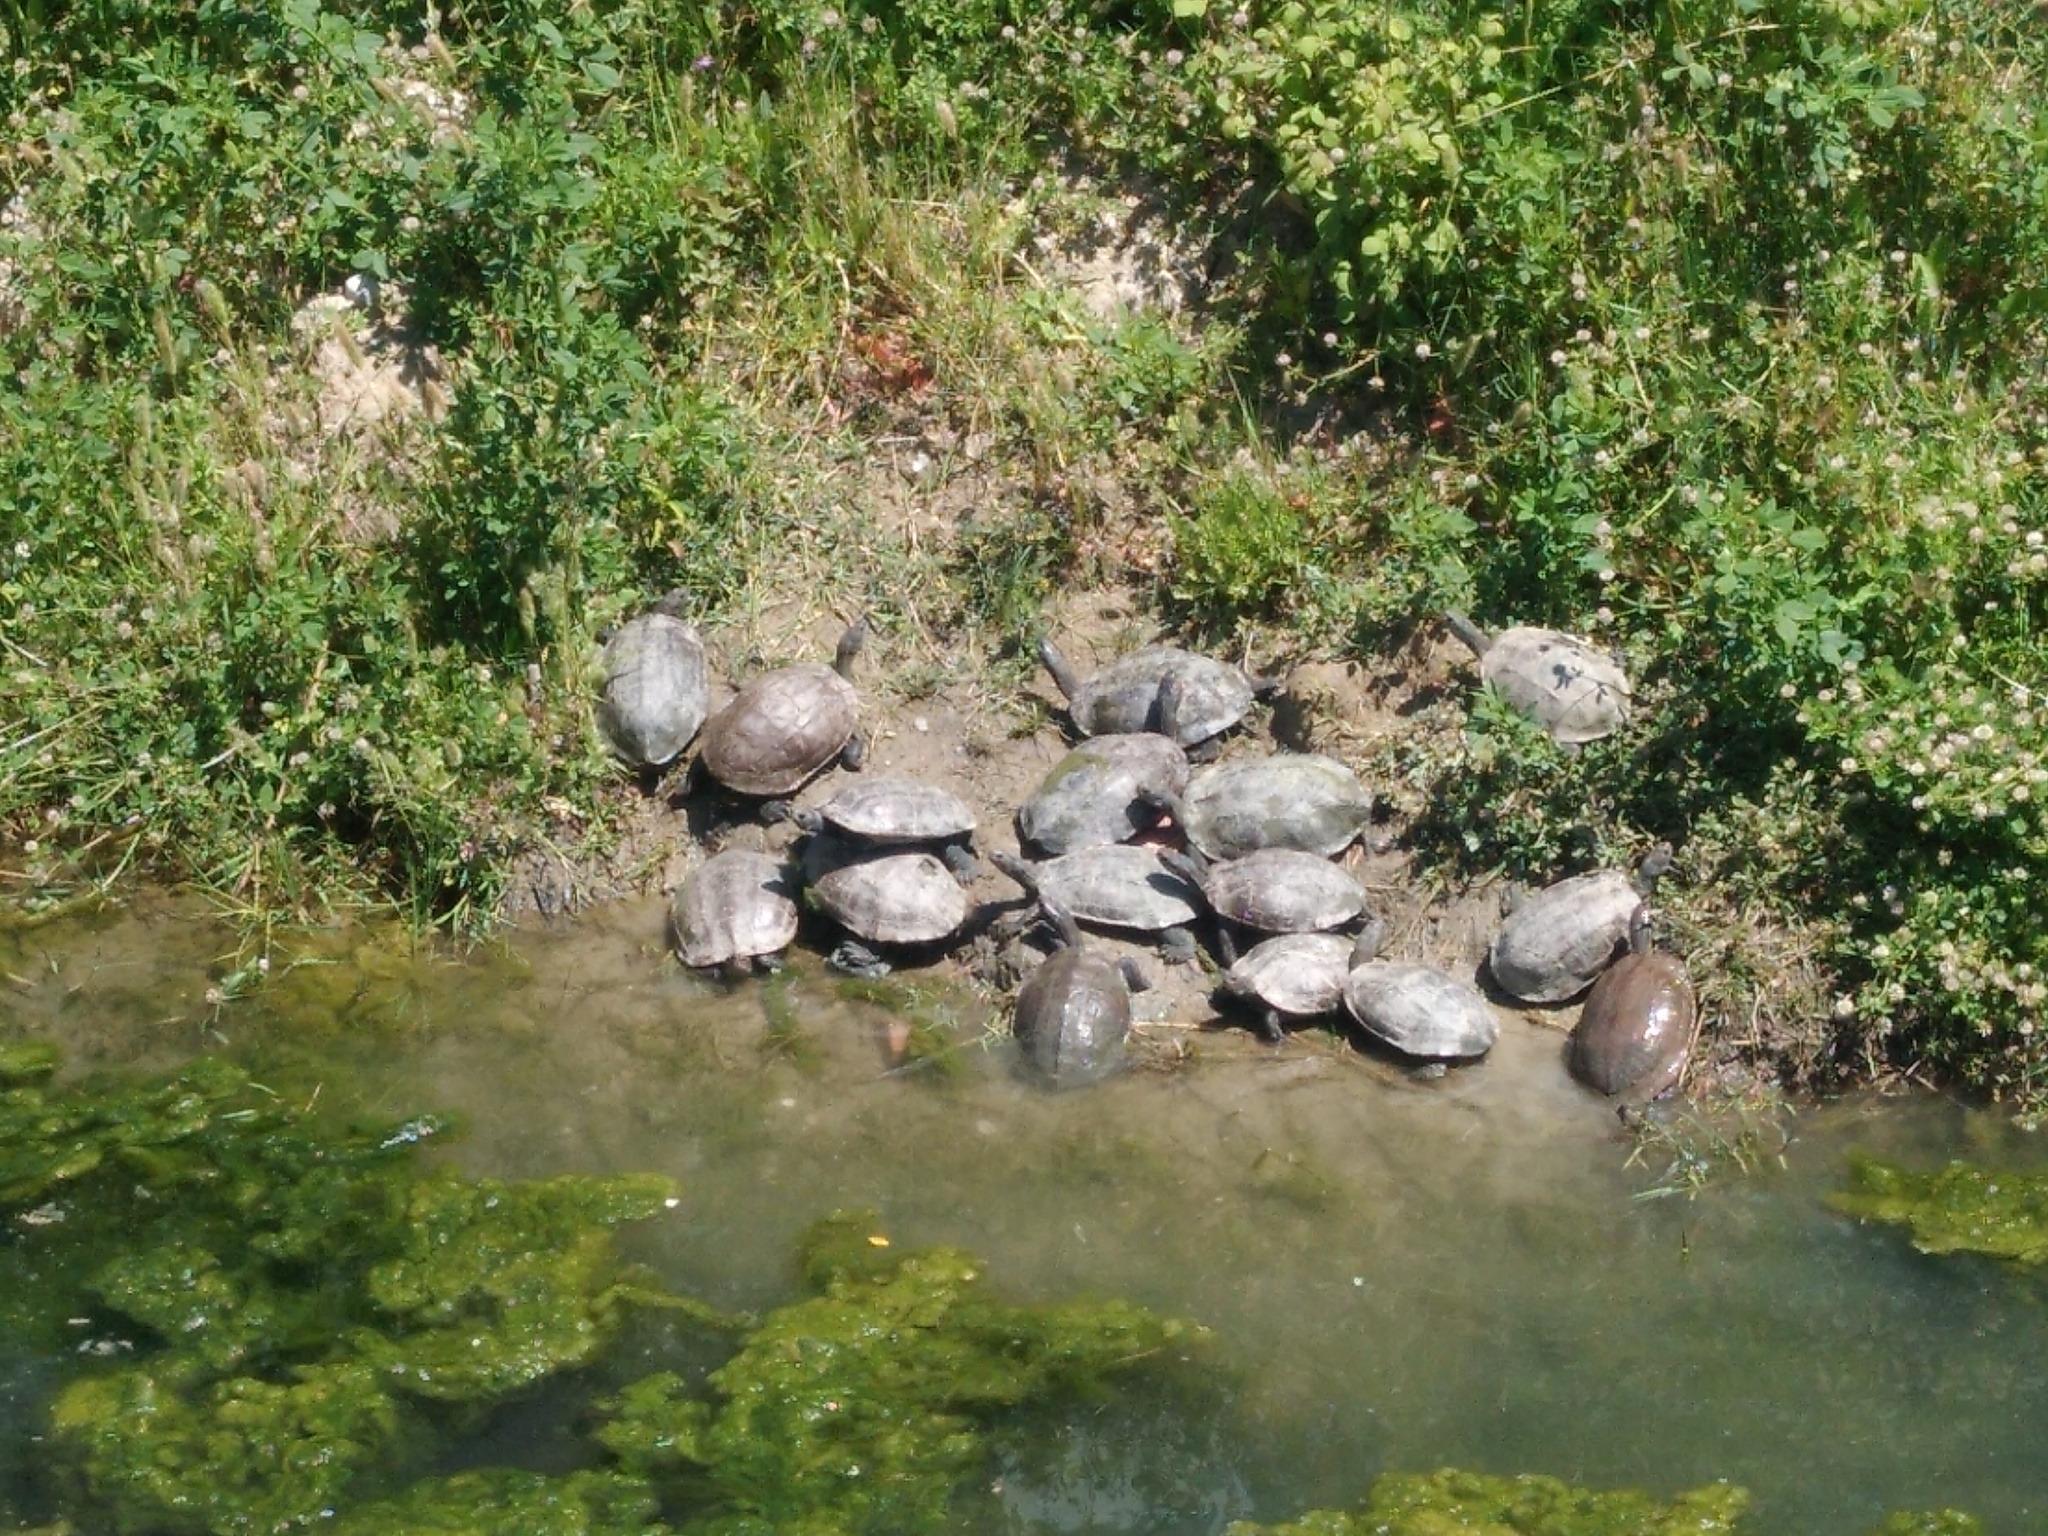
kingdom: Animalia
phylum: Chordata
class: Testudines
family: Geoemydidae
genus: Mauremys
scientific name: Mauremys rivulata
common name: Western caspian turtle
